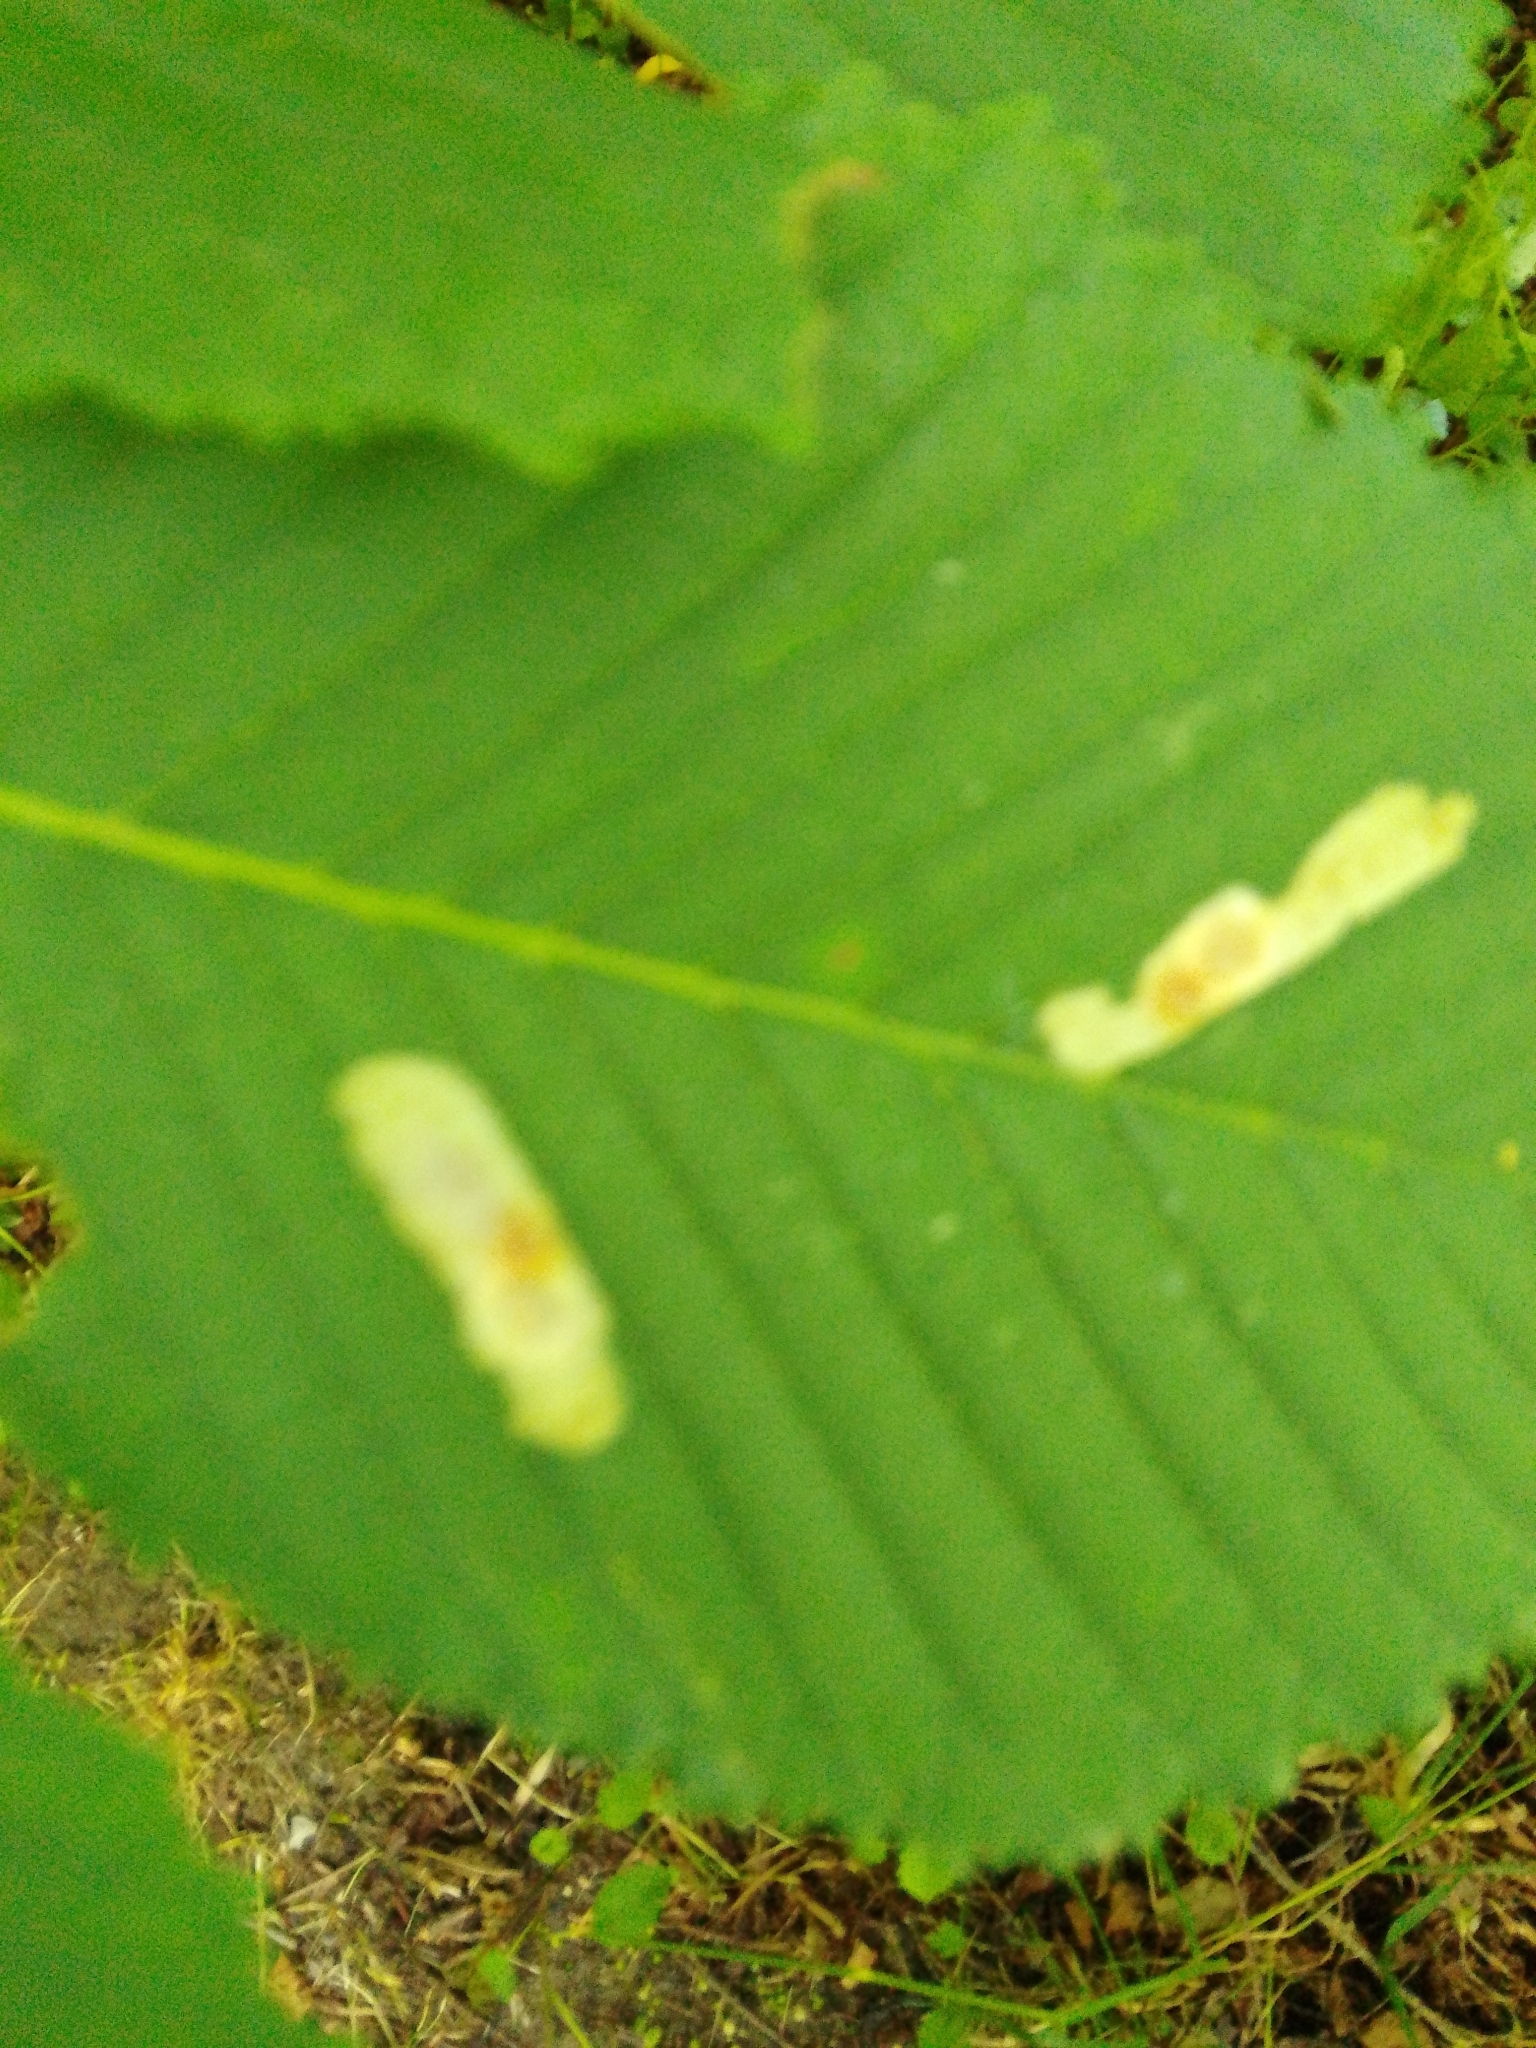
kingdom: Animalia
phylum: Arthropoda
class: Insecta
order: Lepidoptera
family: Gracillariidae
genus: Cameraria
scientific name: Cameraria ohridella
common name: Horse-chestnut leaf-miner
